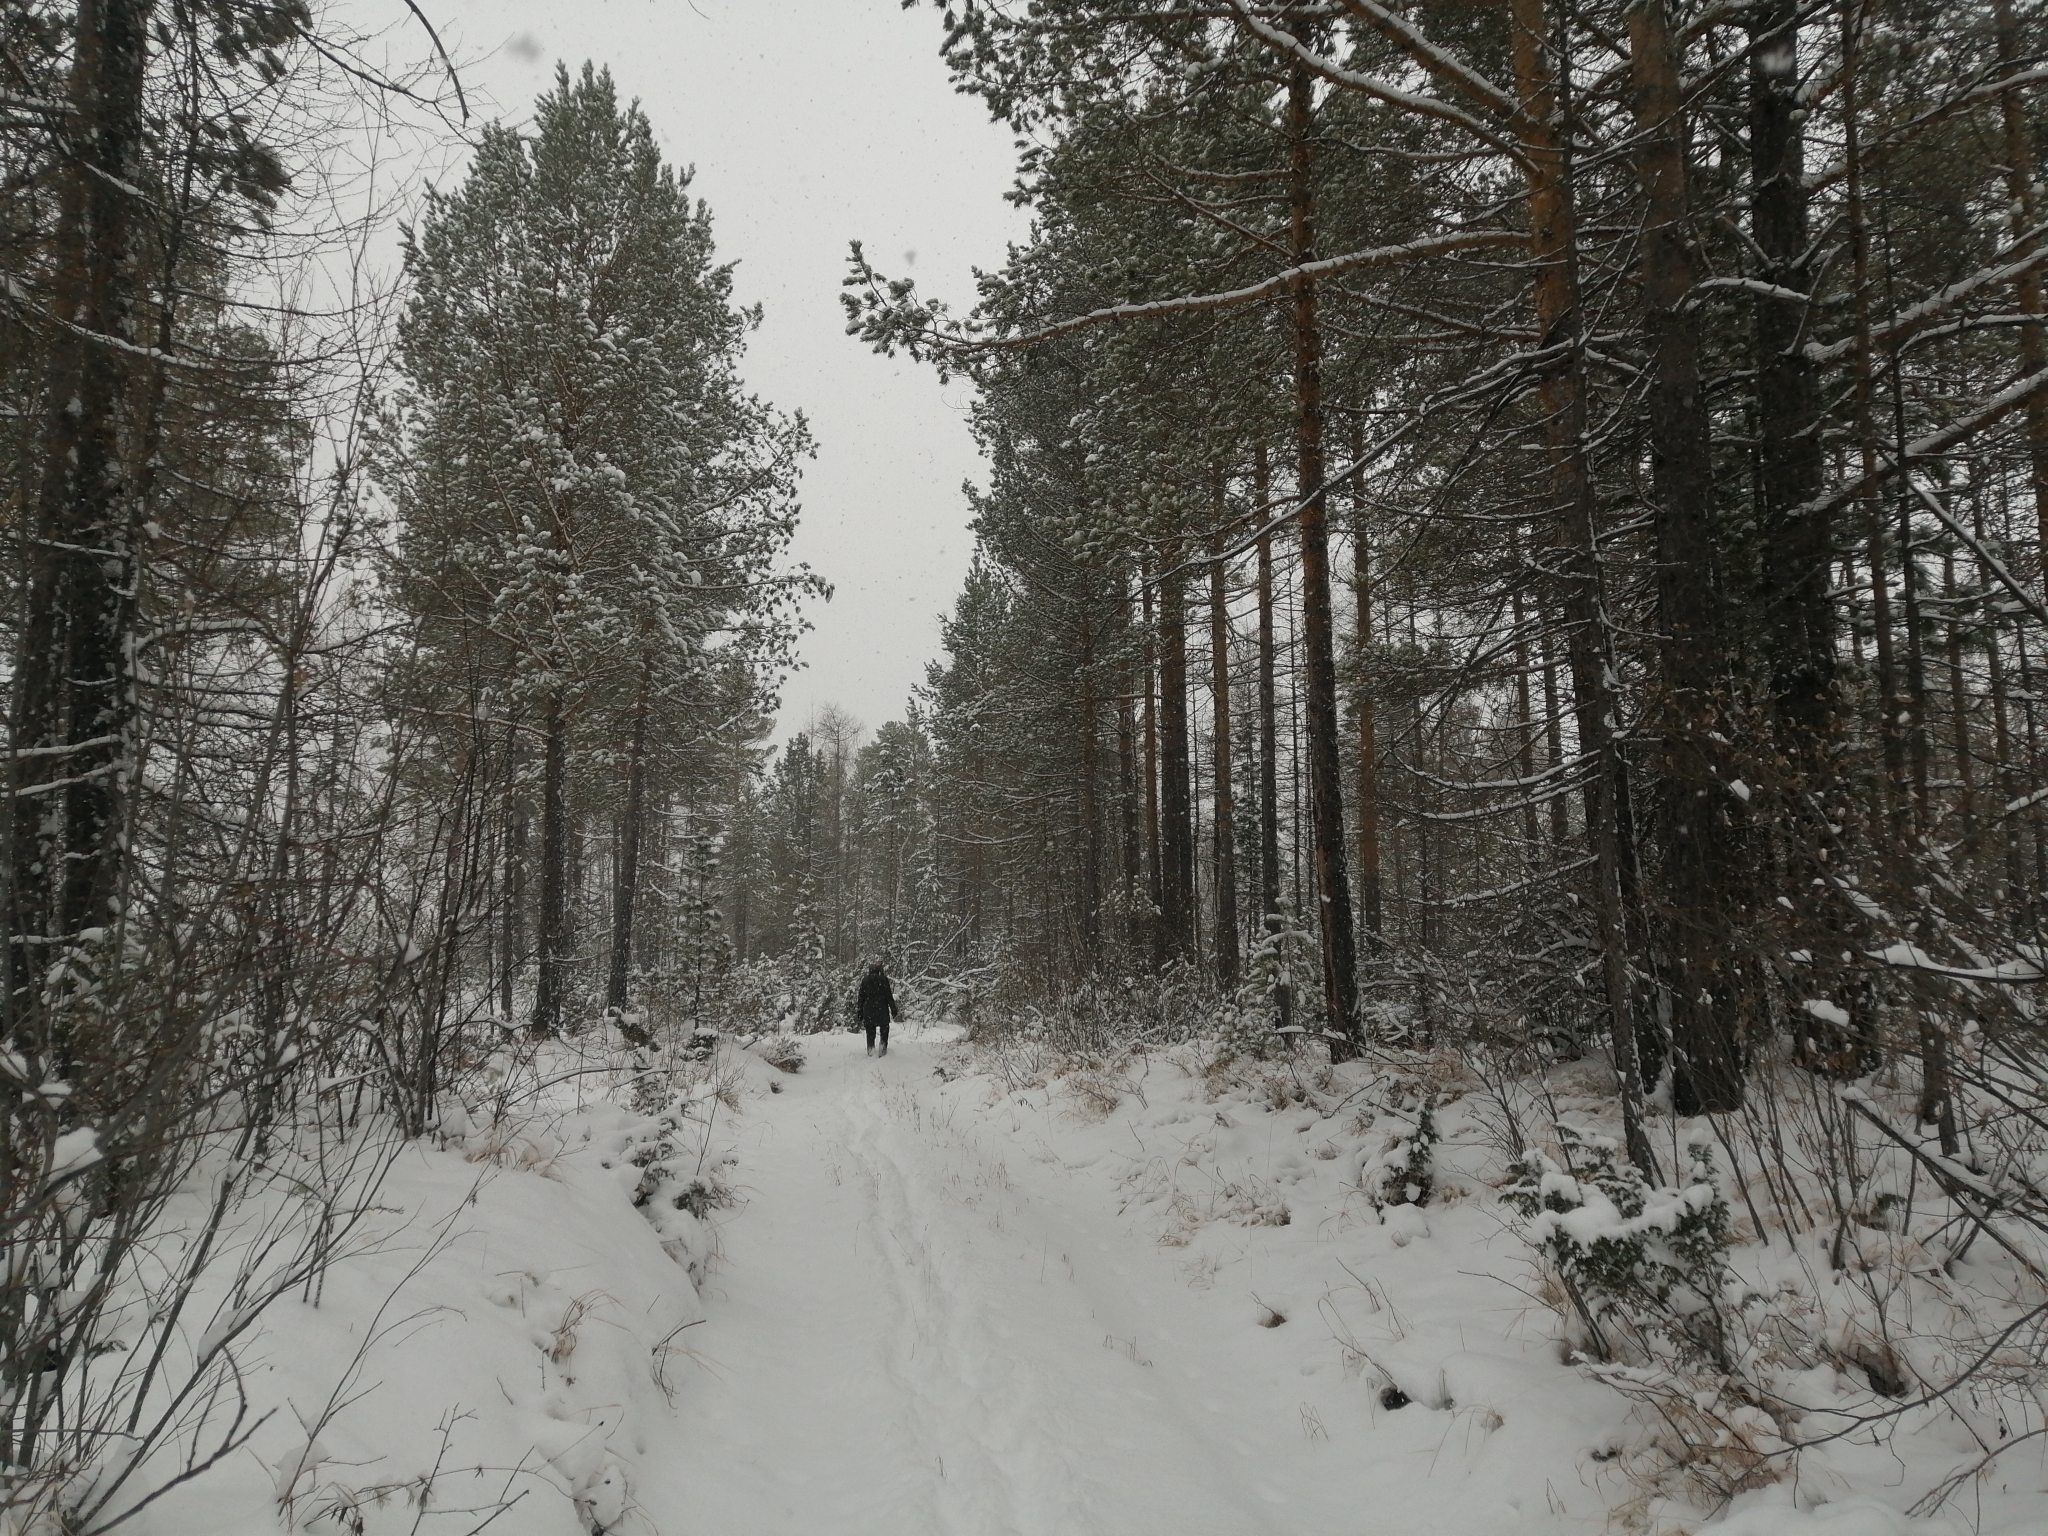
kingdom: Plantae
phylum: Tracheophyta
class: Pinopsida
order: Pinales
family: Pinaceae
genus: Pinus
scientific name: Pinus sylvestris
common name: Scots pine
